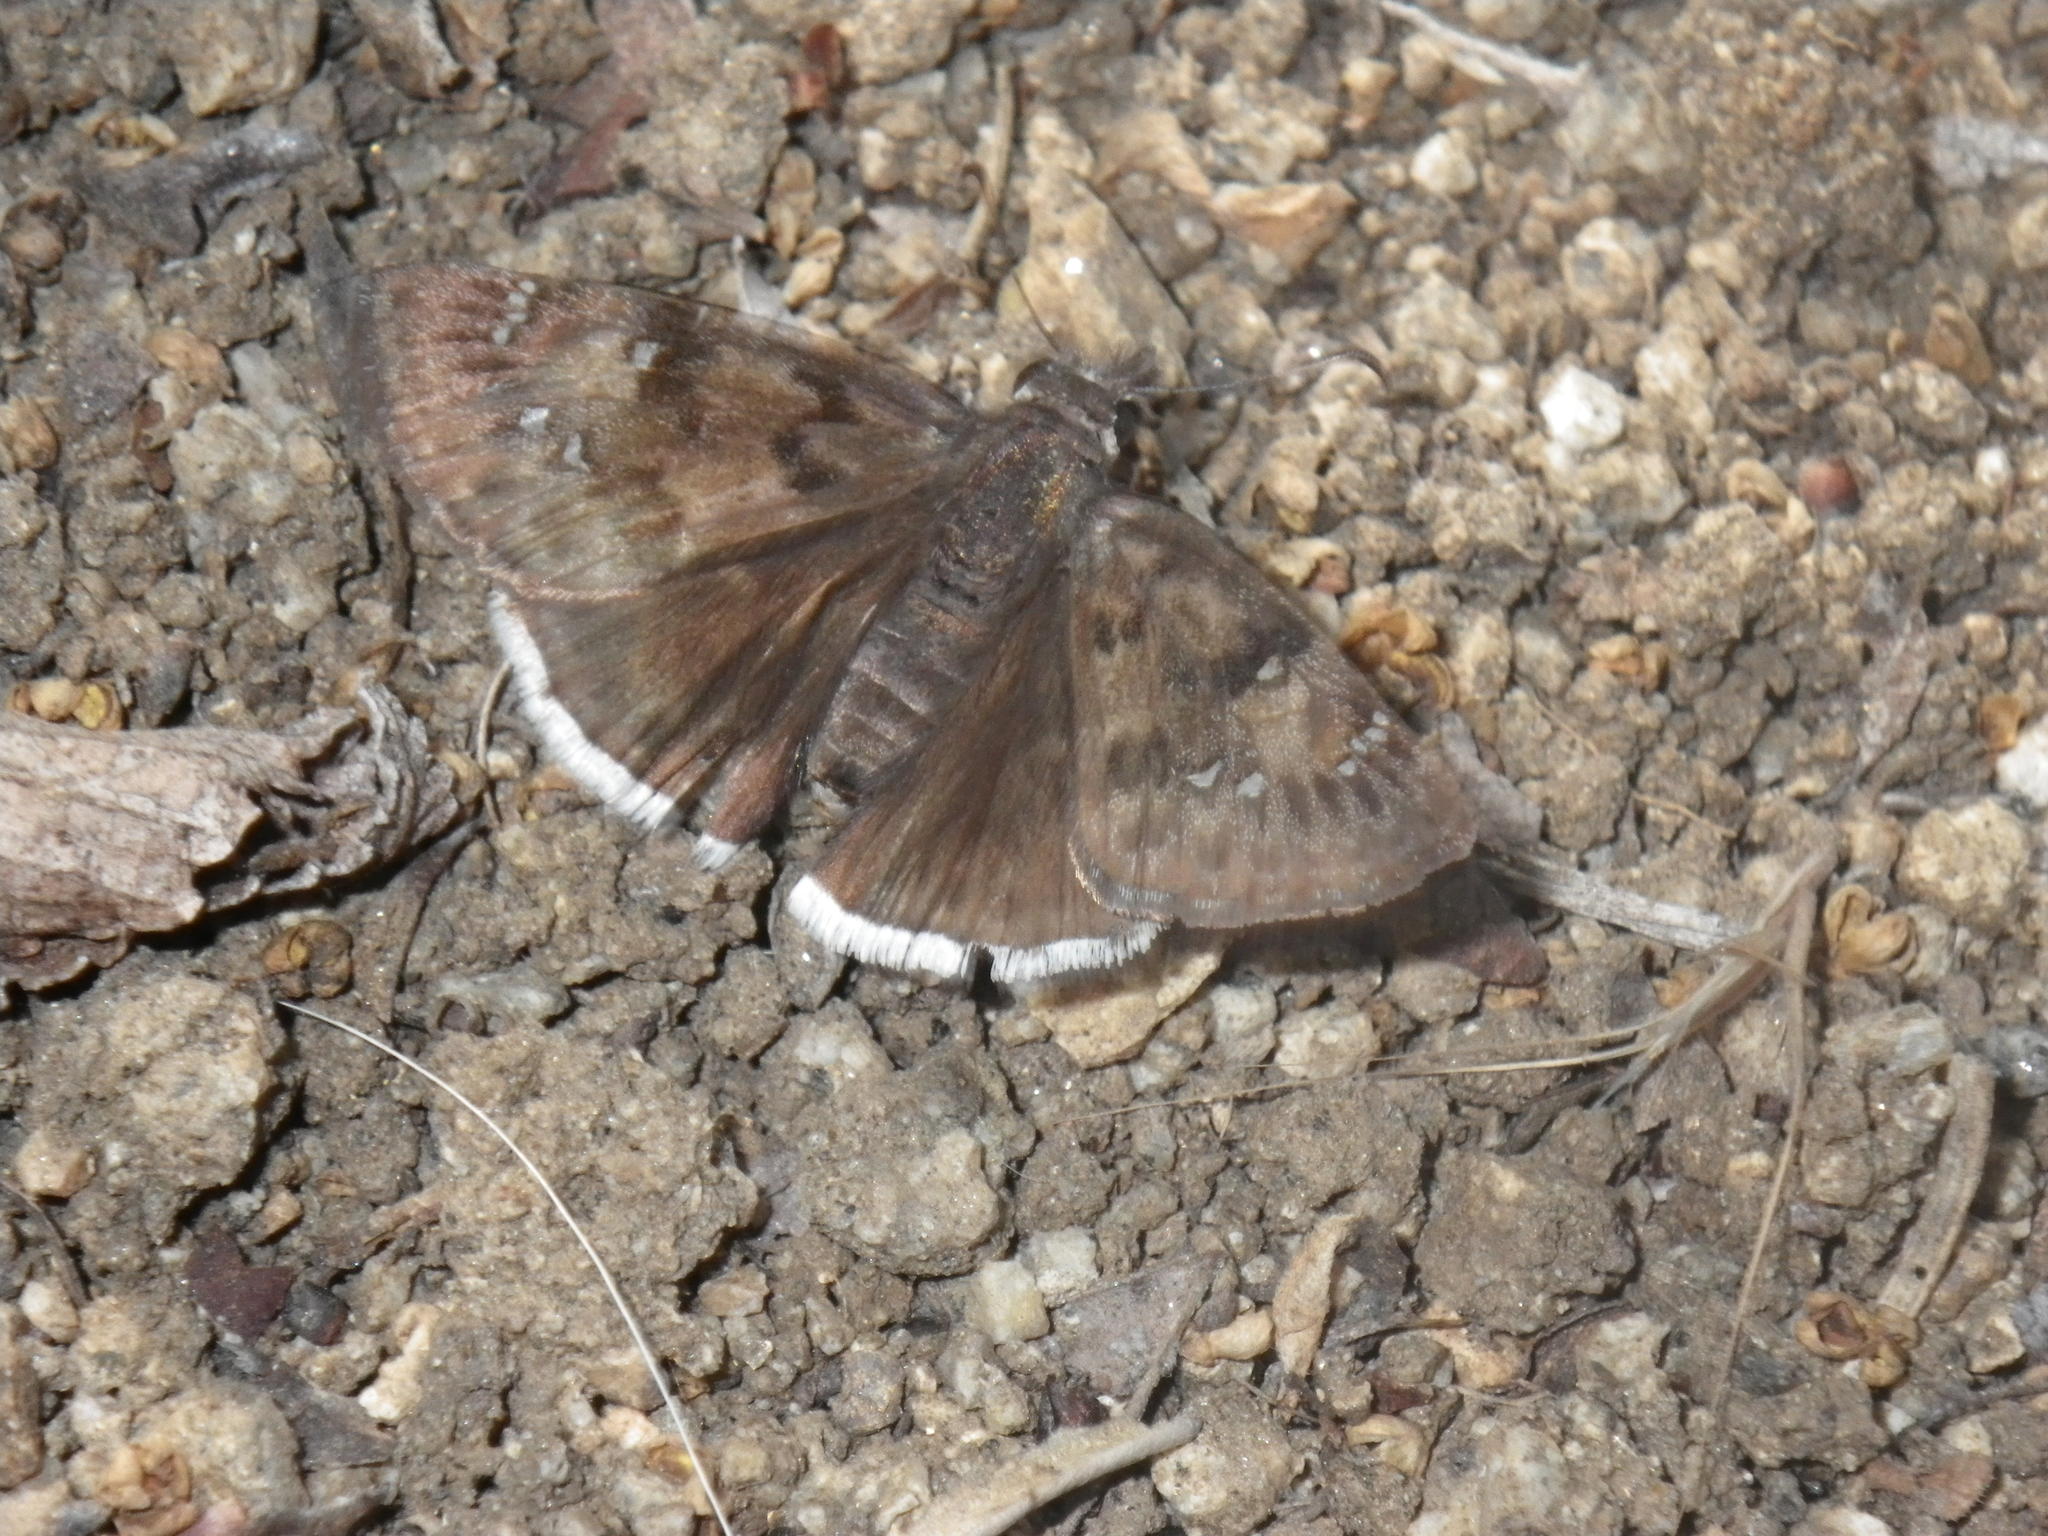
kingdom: Animalia
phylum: Arthropoda
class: Insecta
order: Lepidoptera
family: Hesperiidae
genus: Erynnis
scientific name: Erynnis tristis
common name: Mournful duskywing
